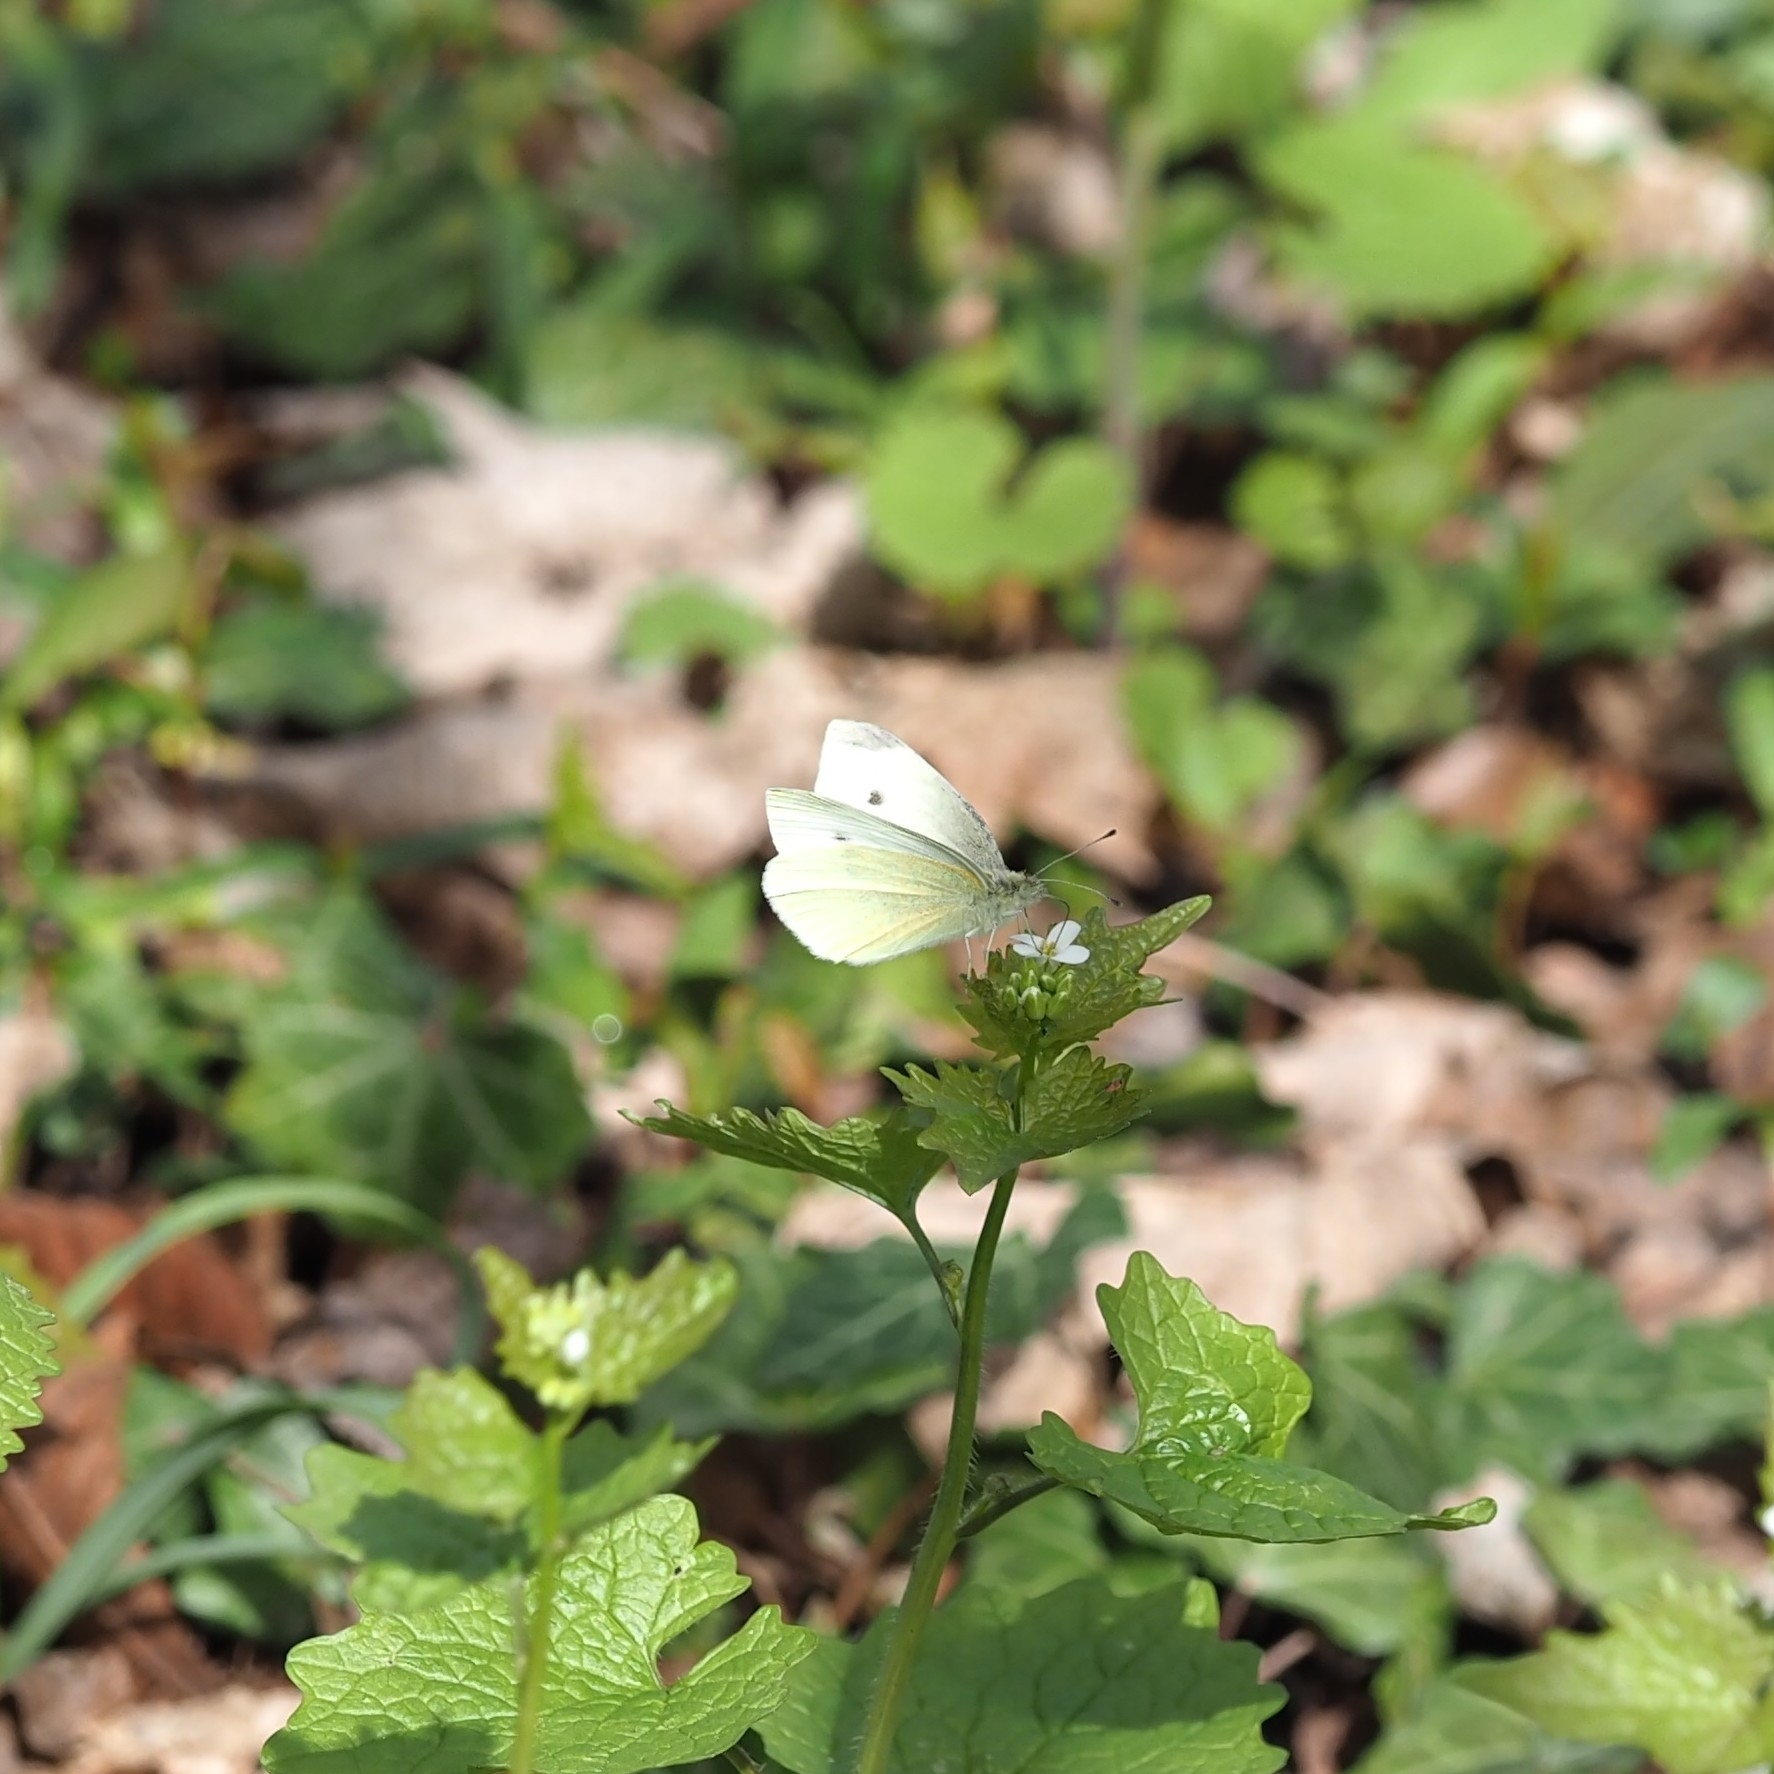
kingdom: Animalia
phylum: Arthropoda
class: Insecta
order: Lepidoptera
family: Pieridae
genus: Pieris
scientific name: Pieris rapae
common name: Small white
